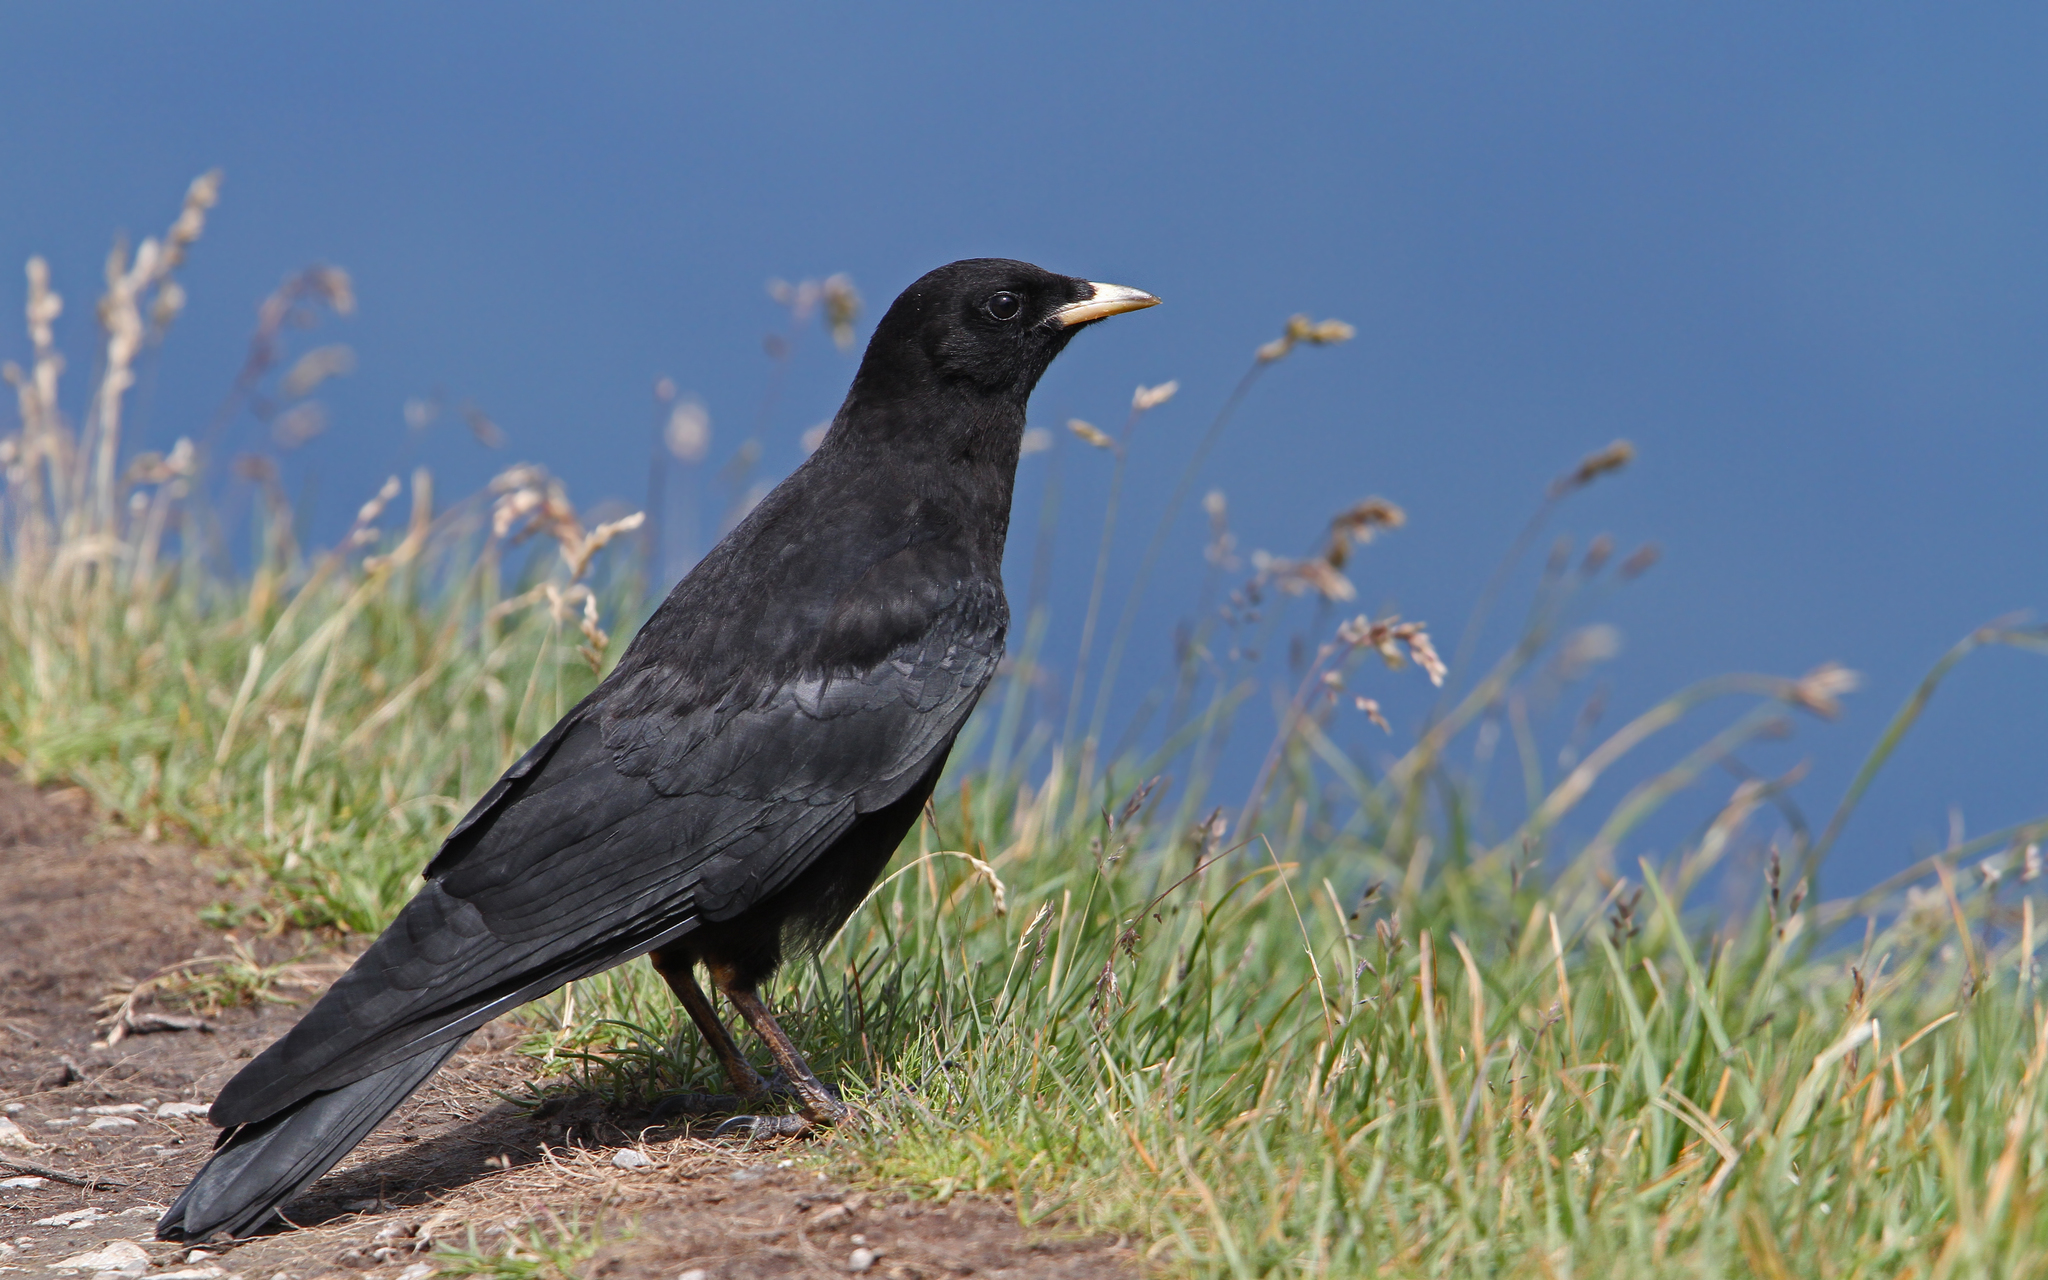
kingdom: Animalia
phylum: Chordata
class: Aves
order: Passeriformes
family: Corvidae
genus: Pyrrhocorax
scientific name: Pyrrhocorax graculus
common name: Alpine chough
